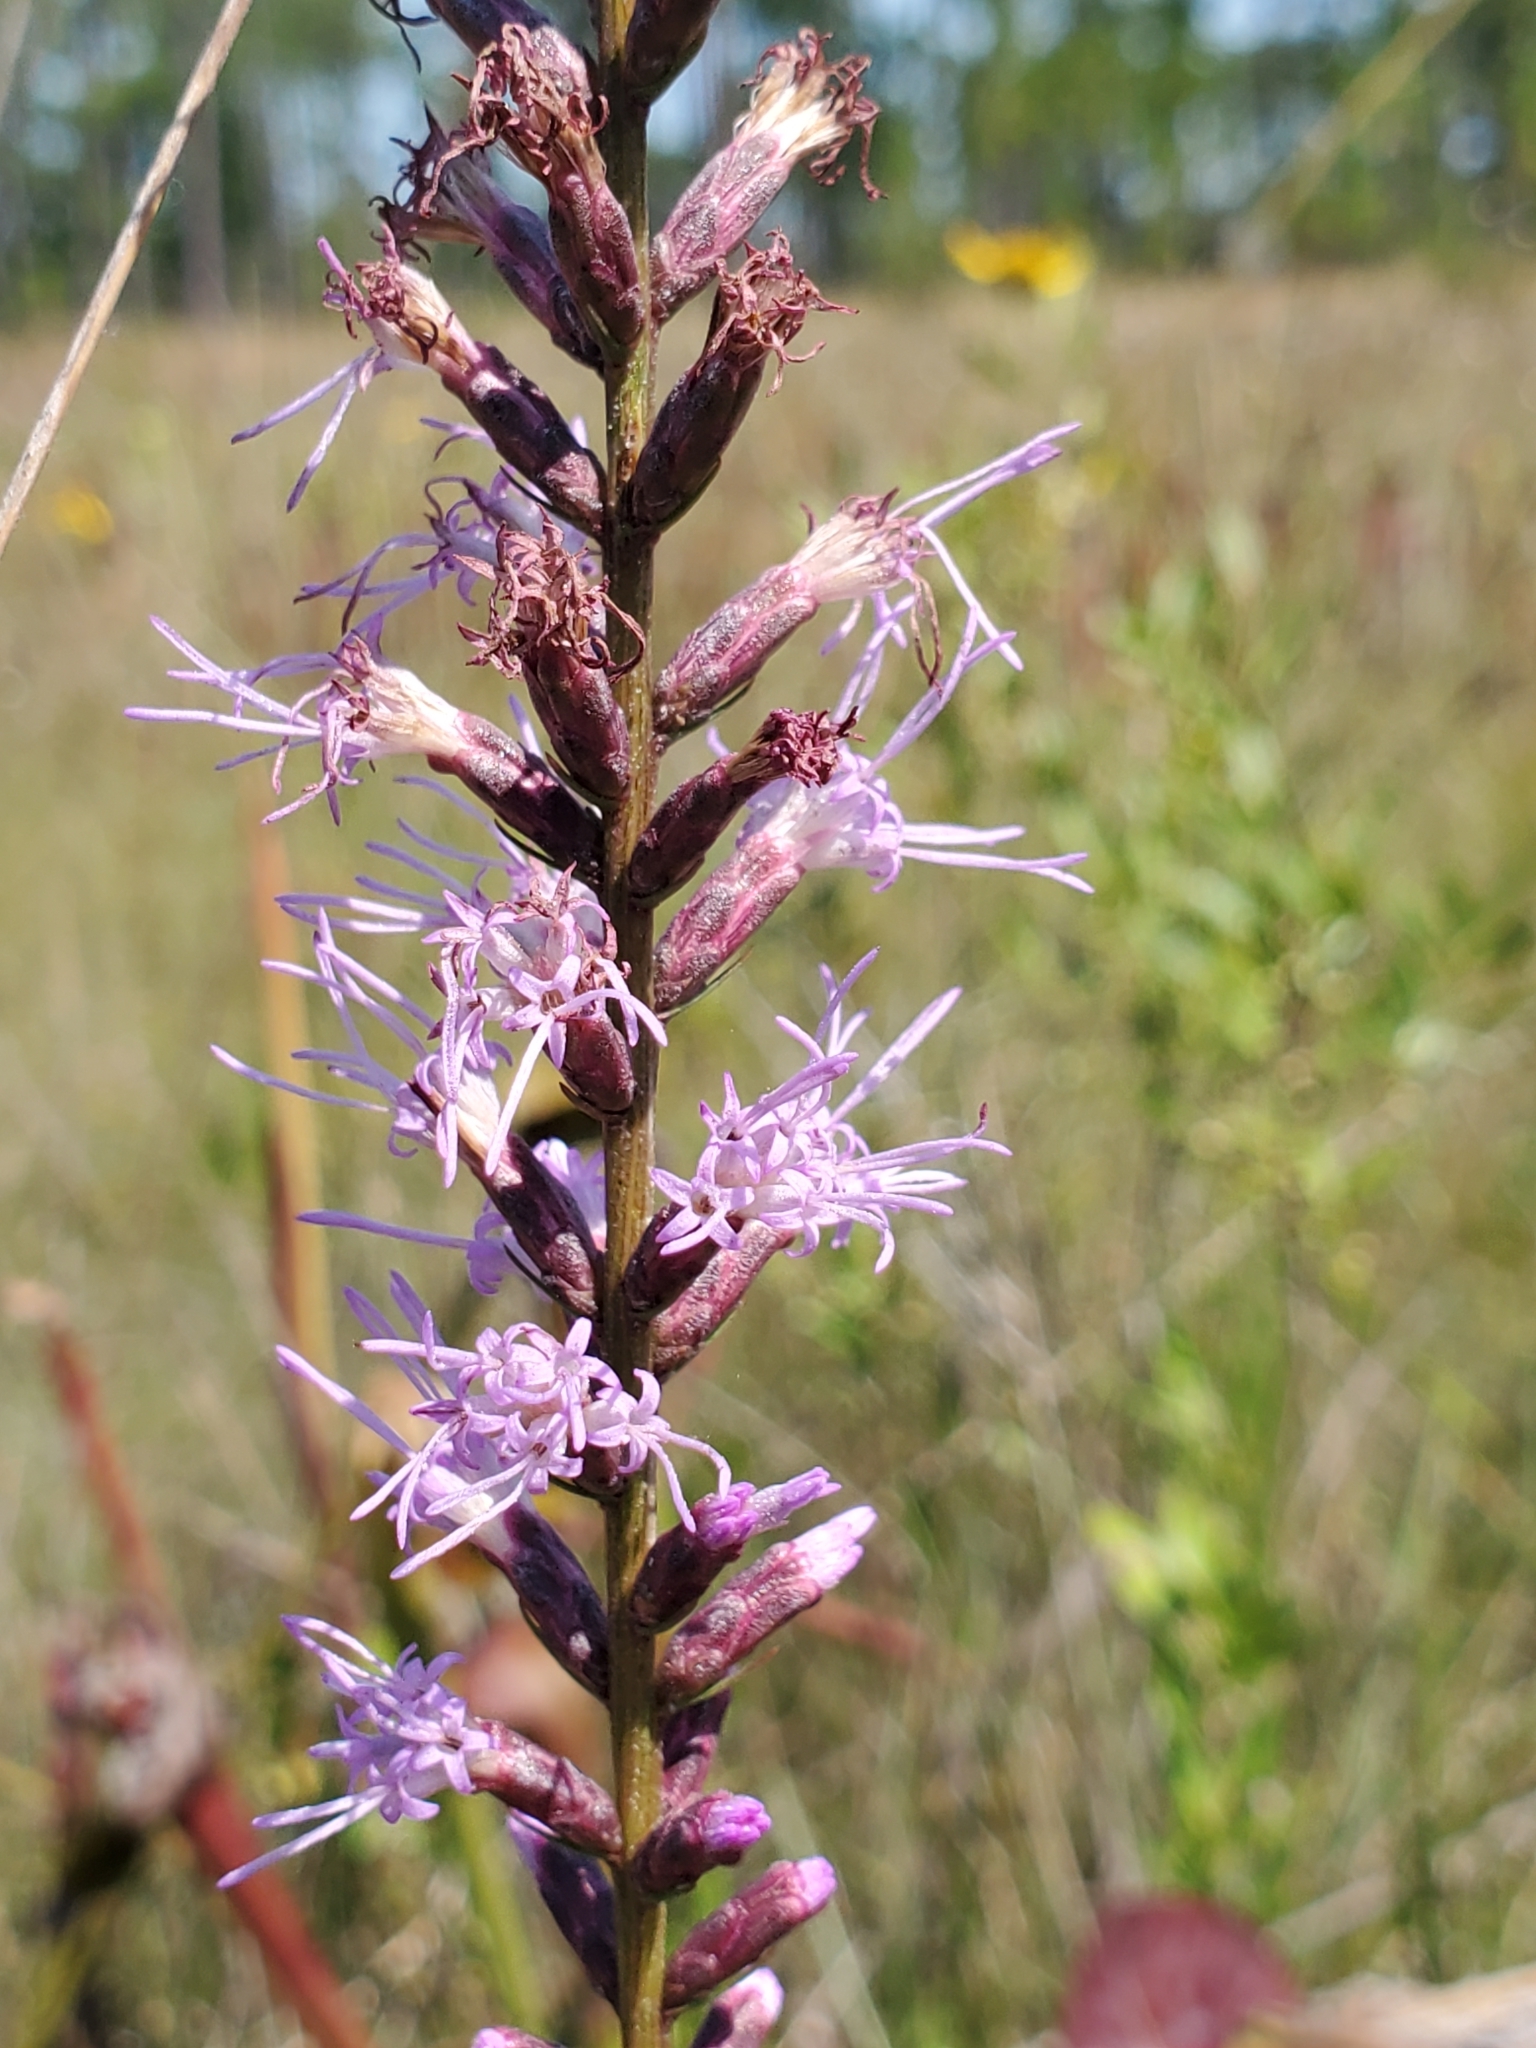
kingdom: Plantae
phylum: Tracheophyta
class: Magnoliopsida
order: Asterales
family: Asteraceae
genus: Liatris
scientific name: Liatris spicata
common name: Florist gayfeather
